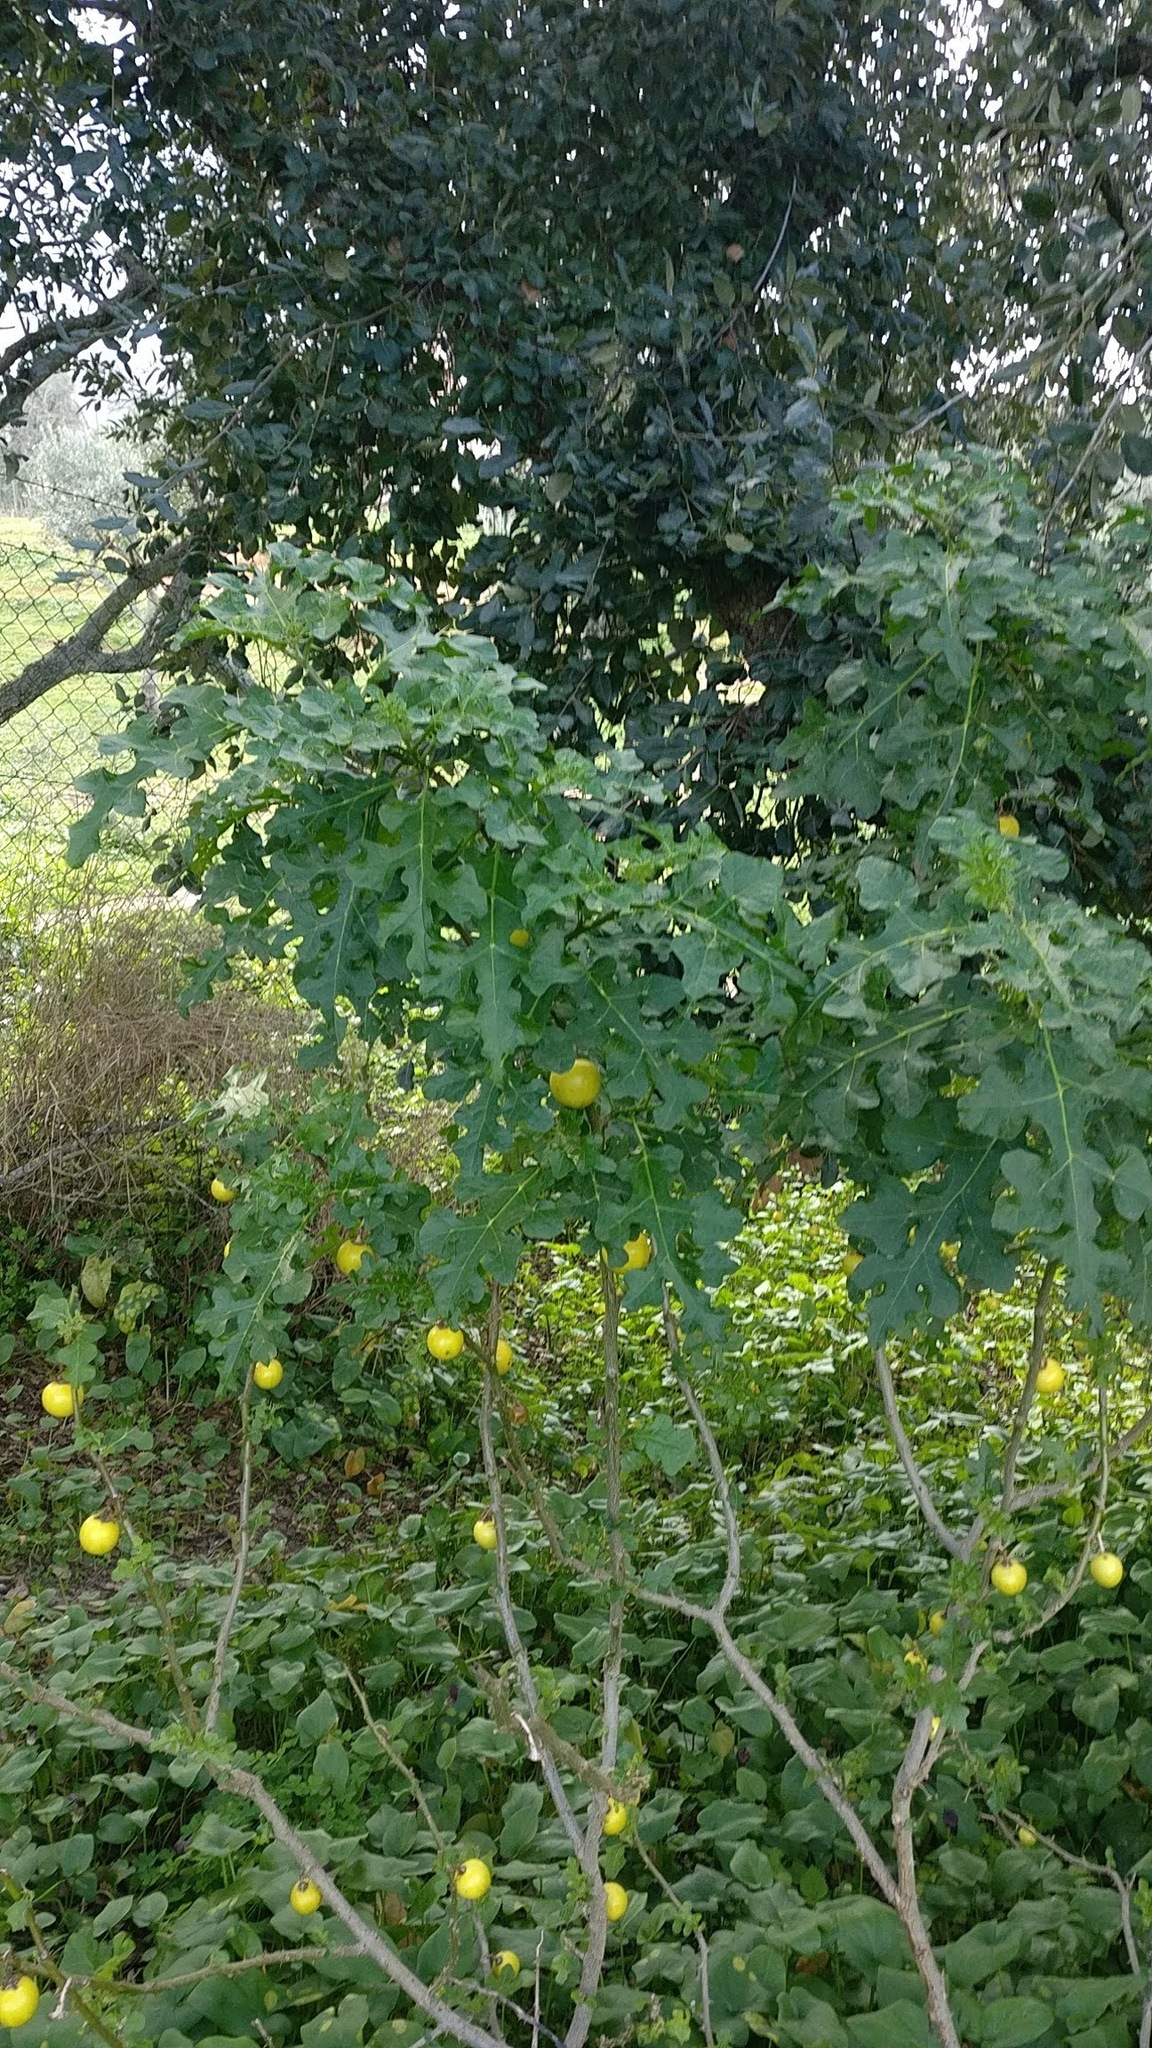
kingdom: Plantae
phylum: Tracheophyta
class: Magnoliopsida
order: Solanales
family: Solanaceae
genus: Solanum
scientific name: Solanum linnaeanum
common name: Nightshade
